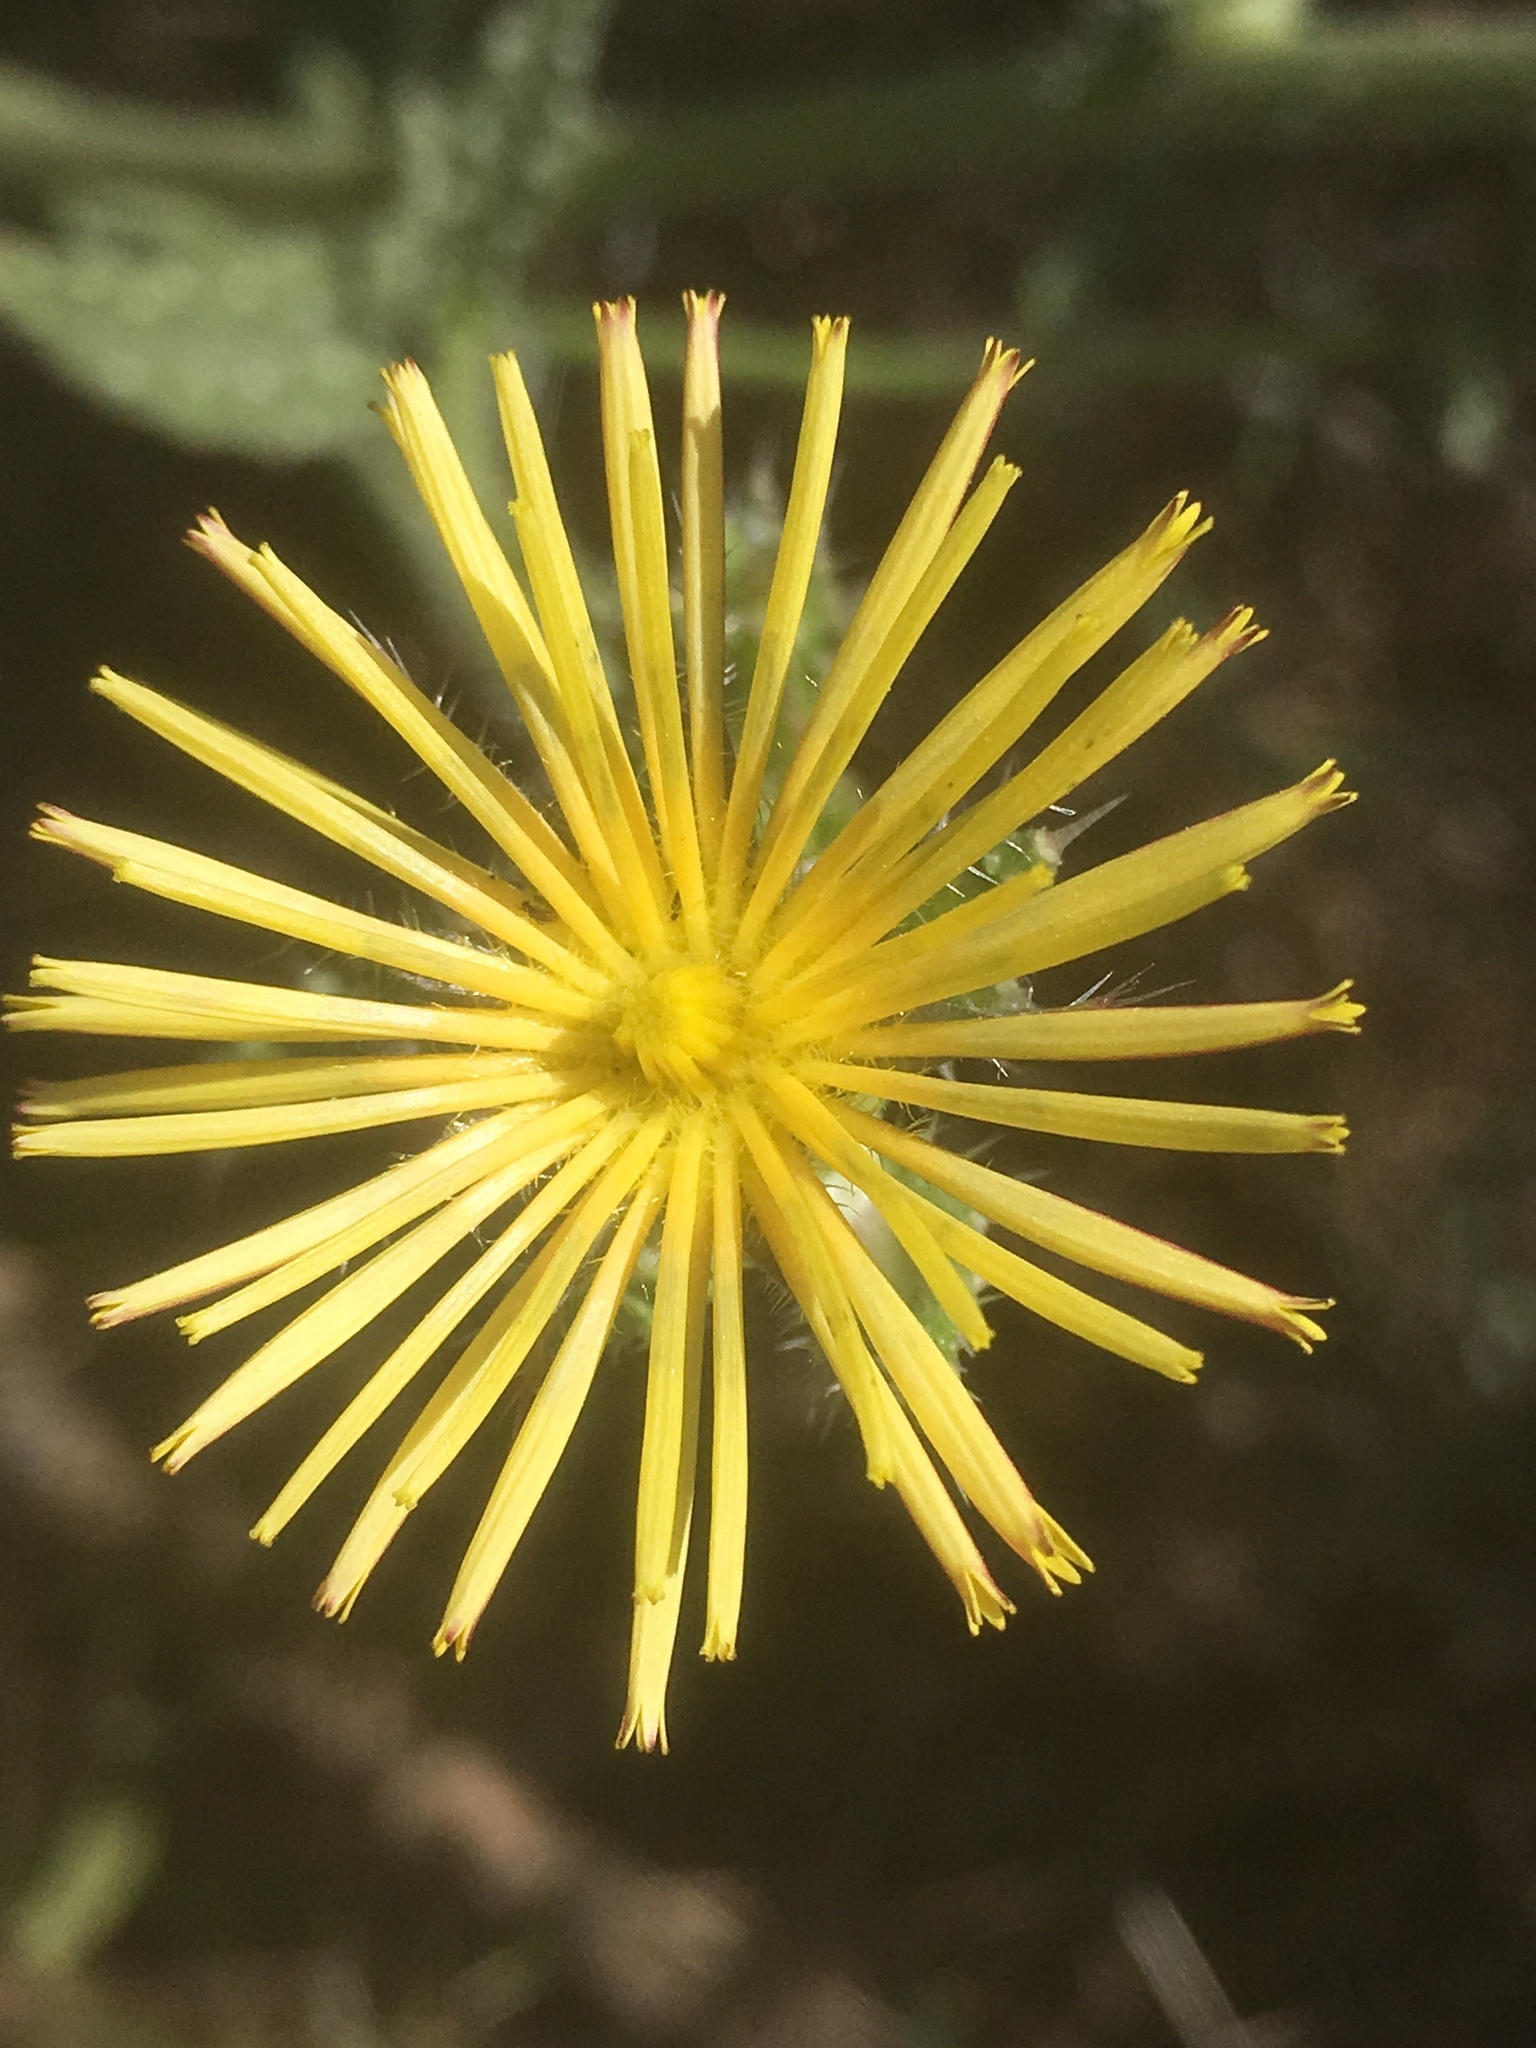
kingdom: Plantae
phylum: Tracheophyta
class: Magnoliopsida
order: Asterales
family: Asteraceae
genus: Helminthotheca
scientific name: Helminthotheca echioides
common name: Ox-tongue
